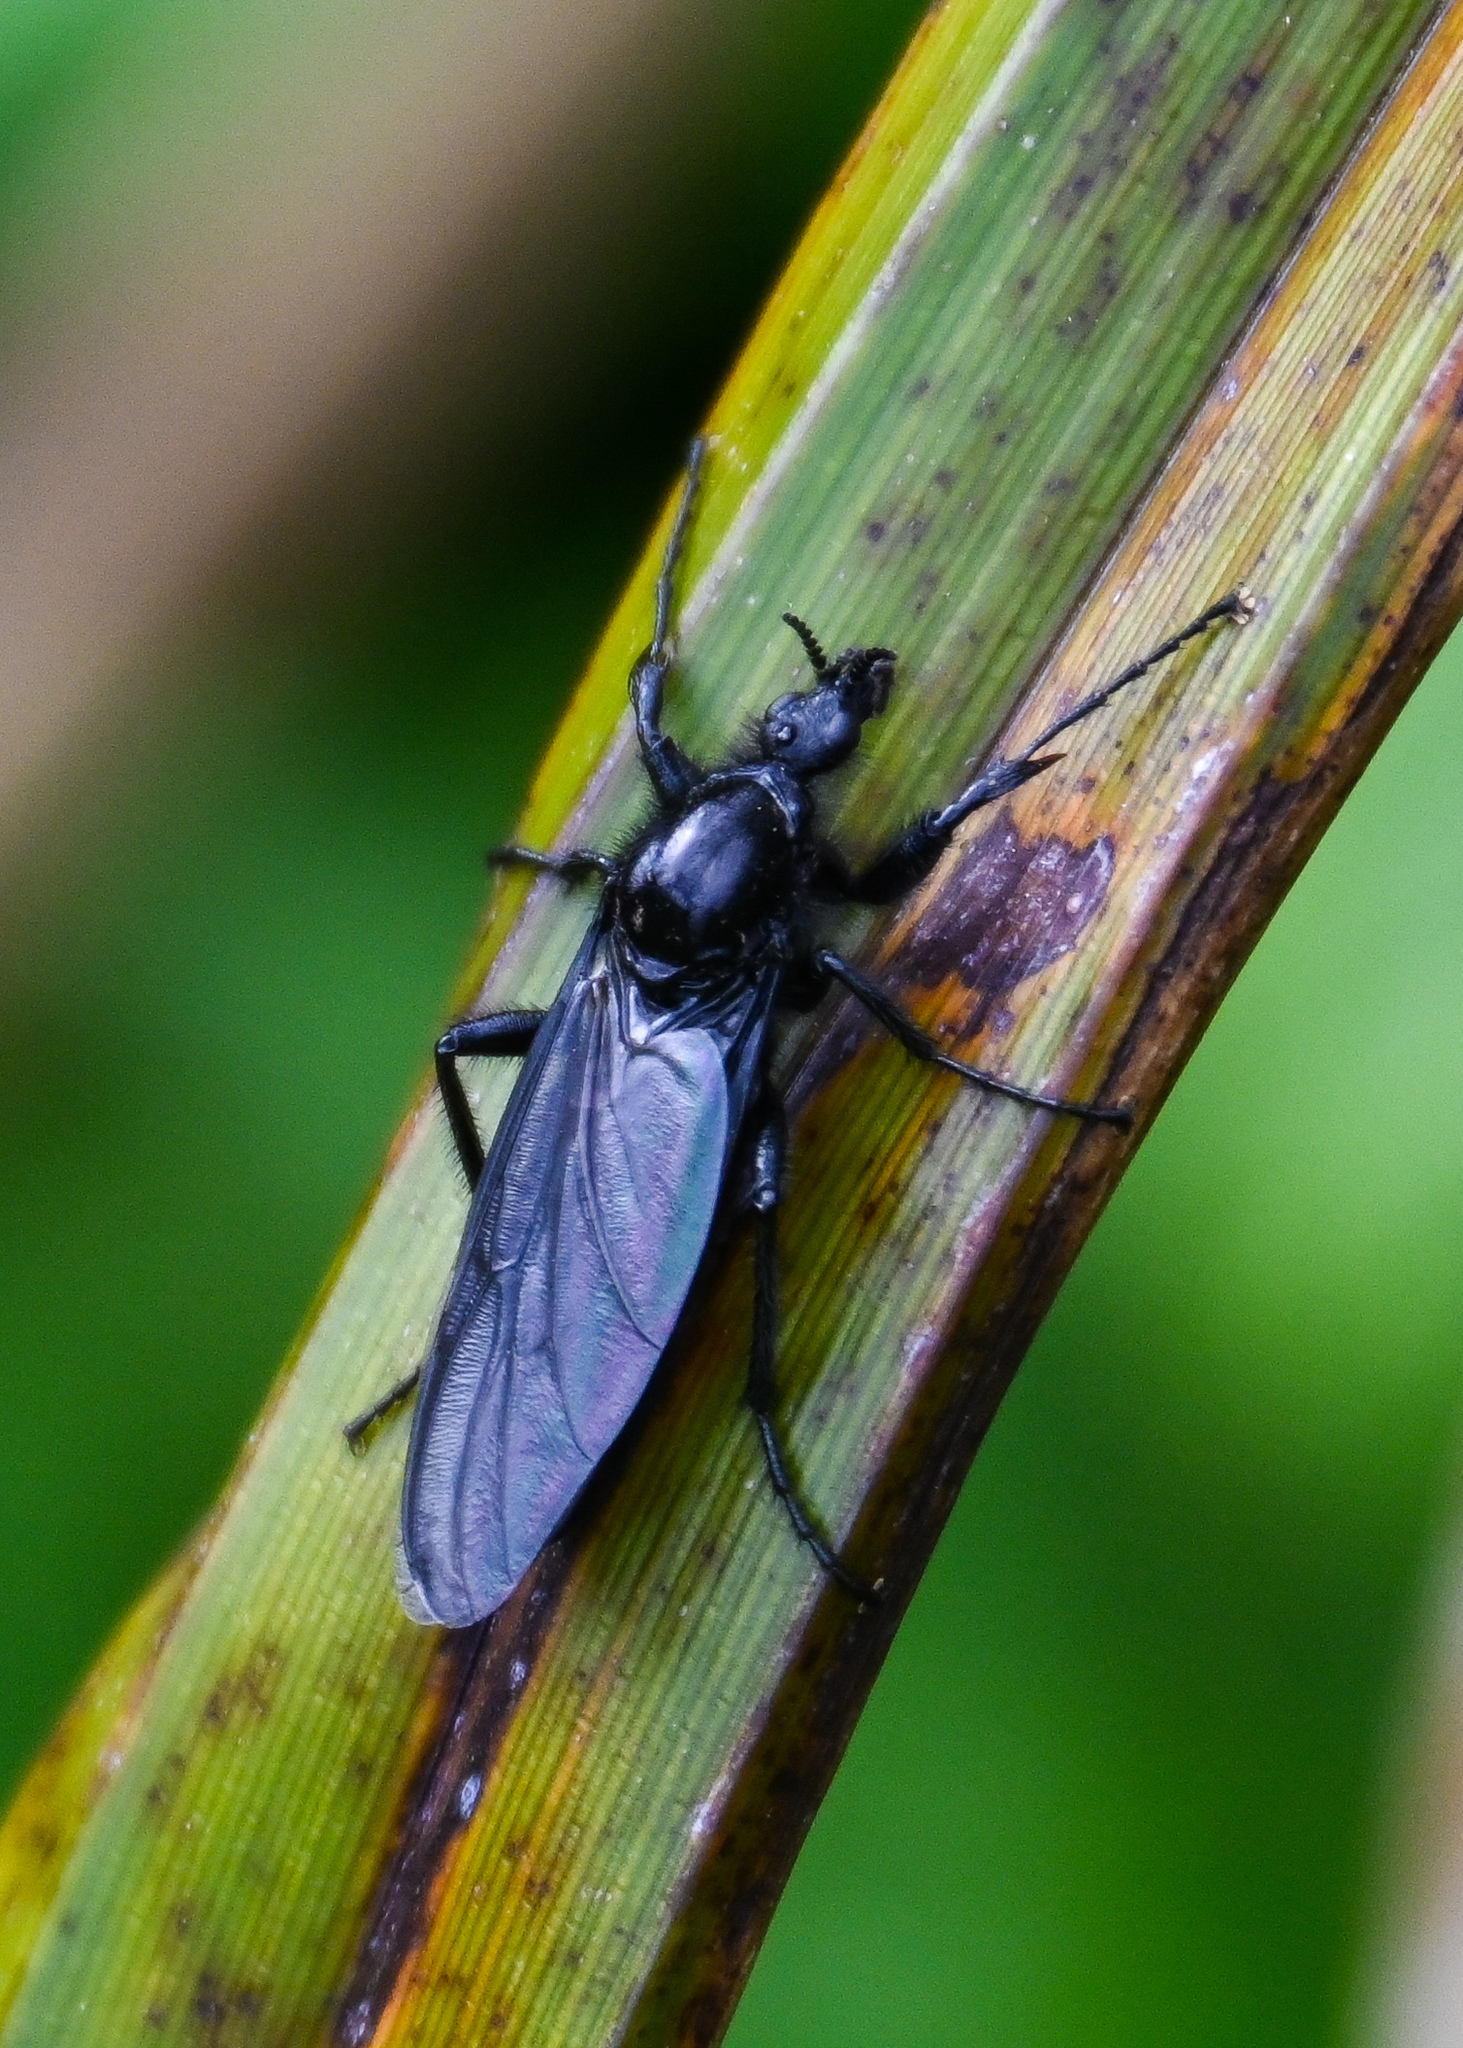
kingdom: Animalia
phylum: Arthropoda
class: Insecta
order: Diptera
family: Bibionidae
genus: Bibio
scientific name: Bibio marci
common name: St marks fly
